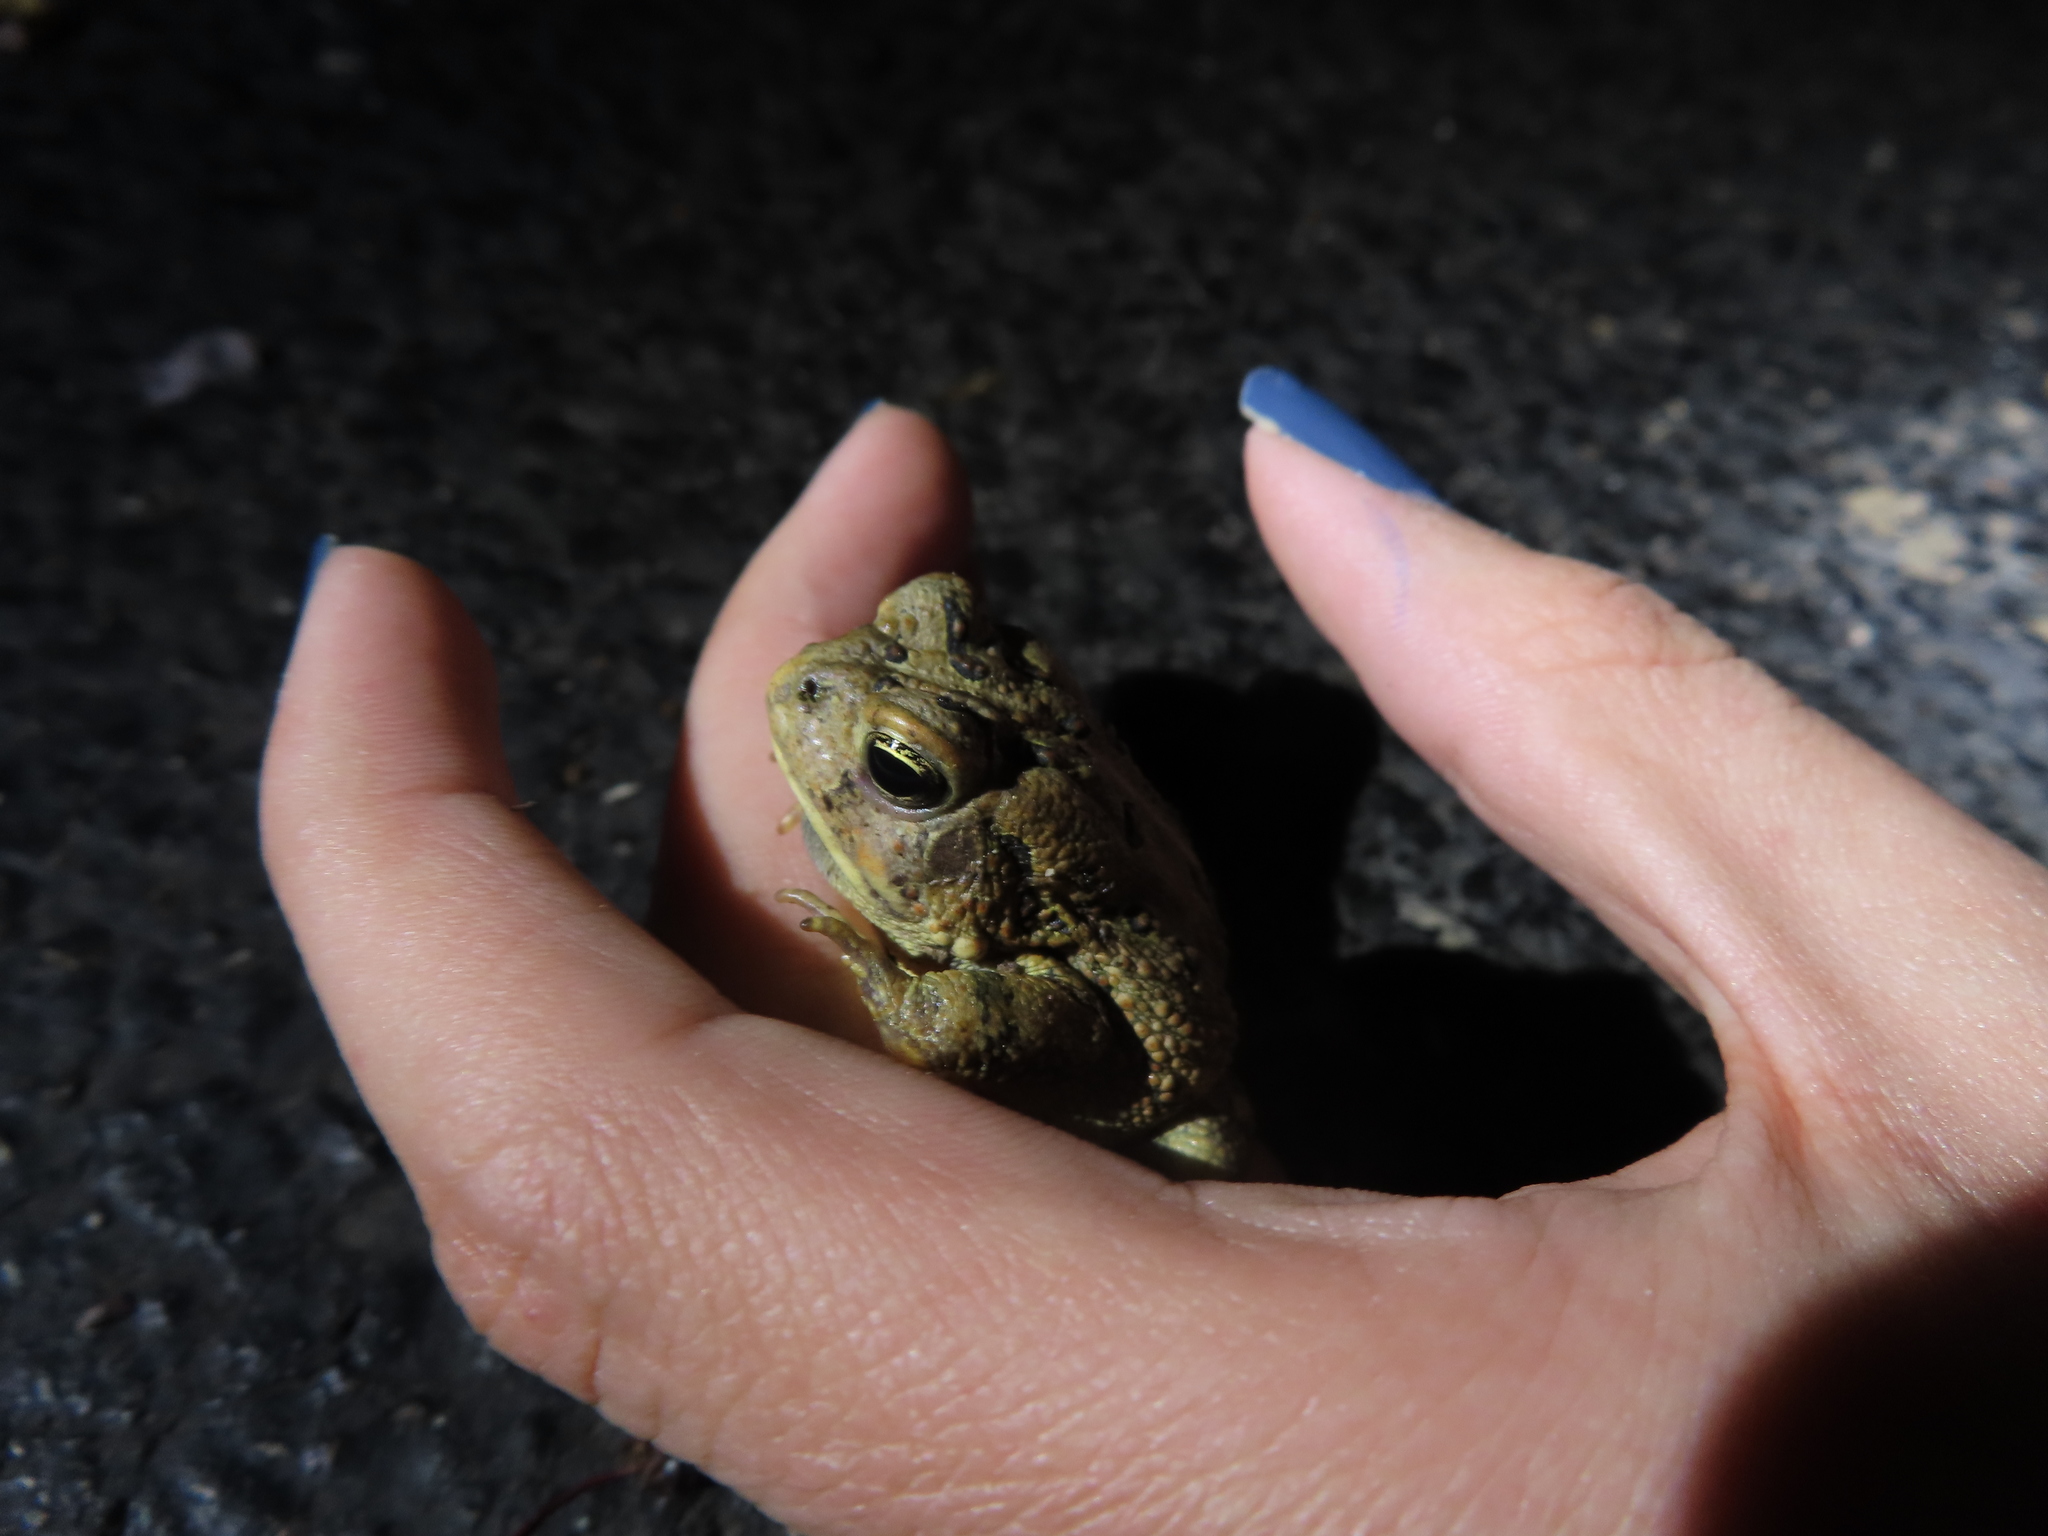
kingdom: Animalia
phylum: Chordata
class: Amphibia
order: Anura
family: Bufonidae
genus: Anaxyrus
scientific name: Anaxyrus fowleri
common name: Fowler's toad
